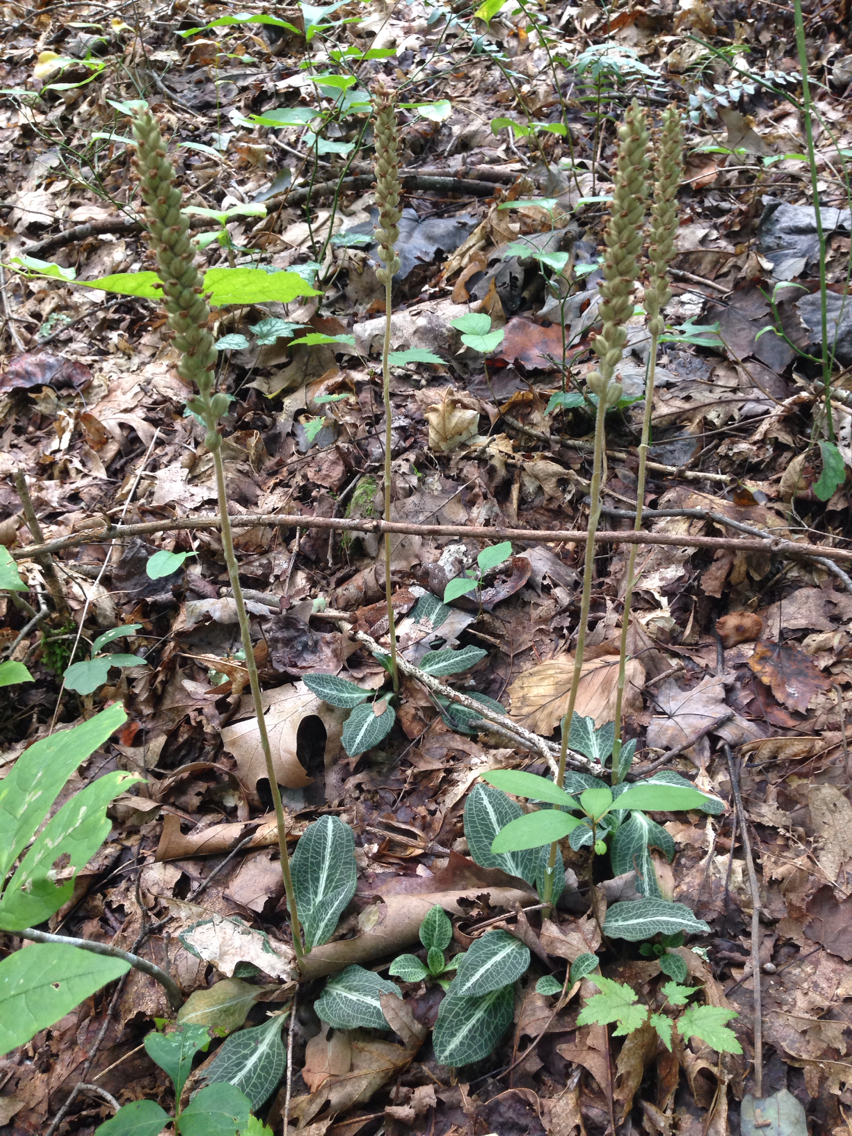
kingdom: Plantae
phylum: Tracheophyta
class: Liliopsida
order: Asparagales
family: Orchidaceae
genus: Goodyera
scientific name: Goodyera pubescens
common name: Downy rattlesnake-plantain
